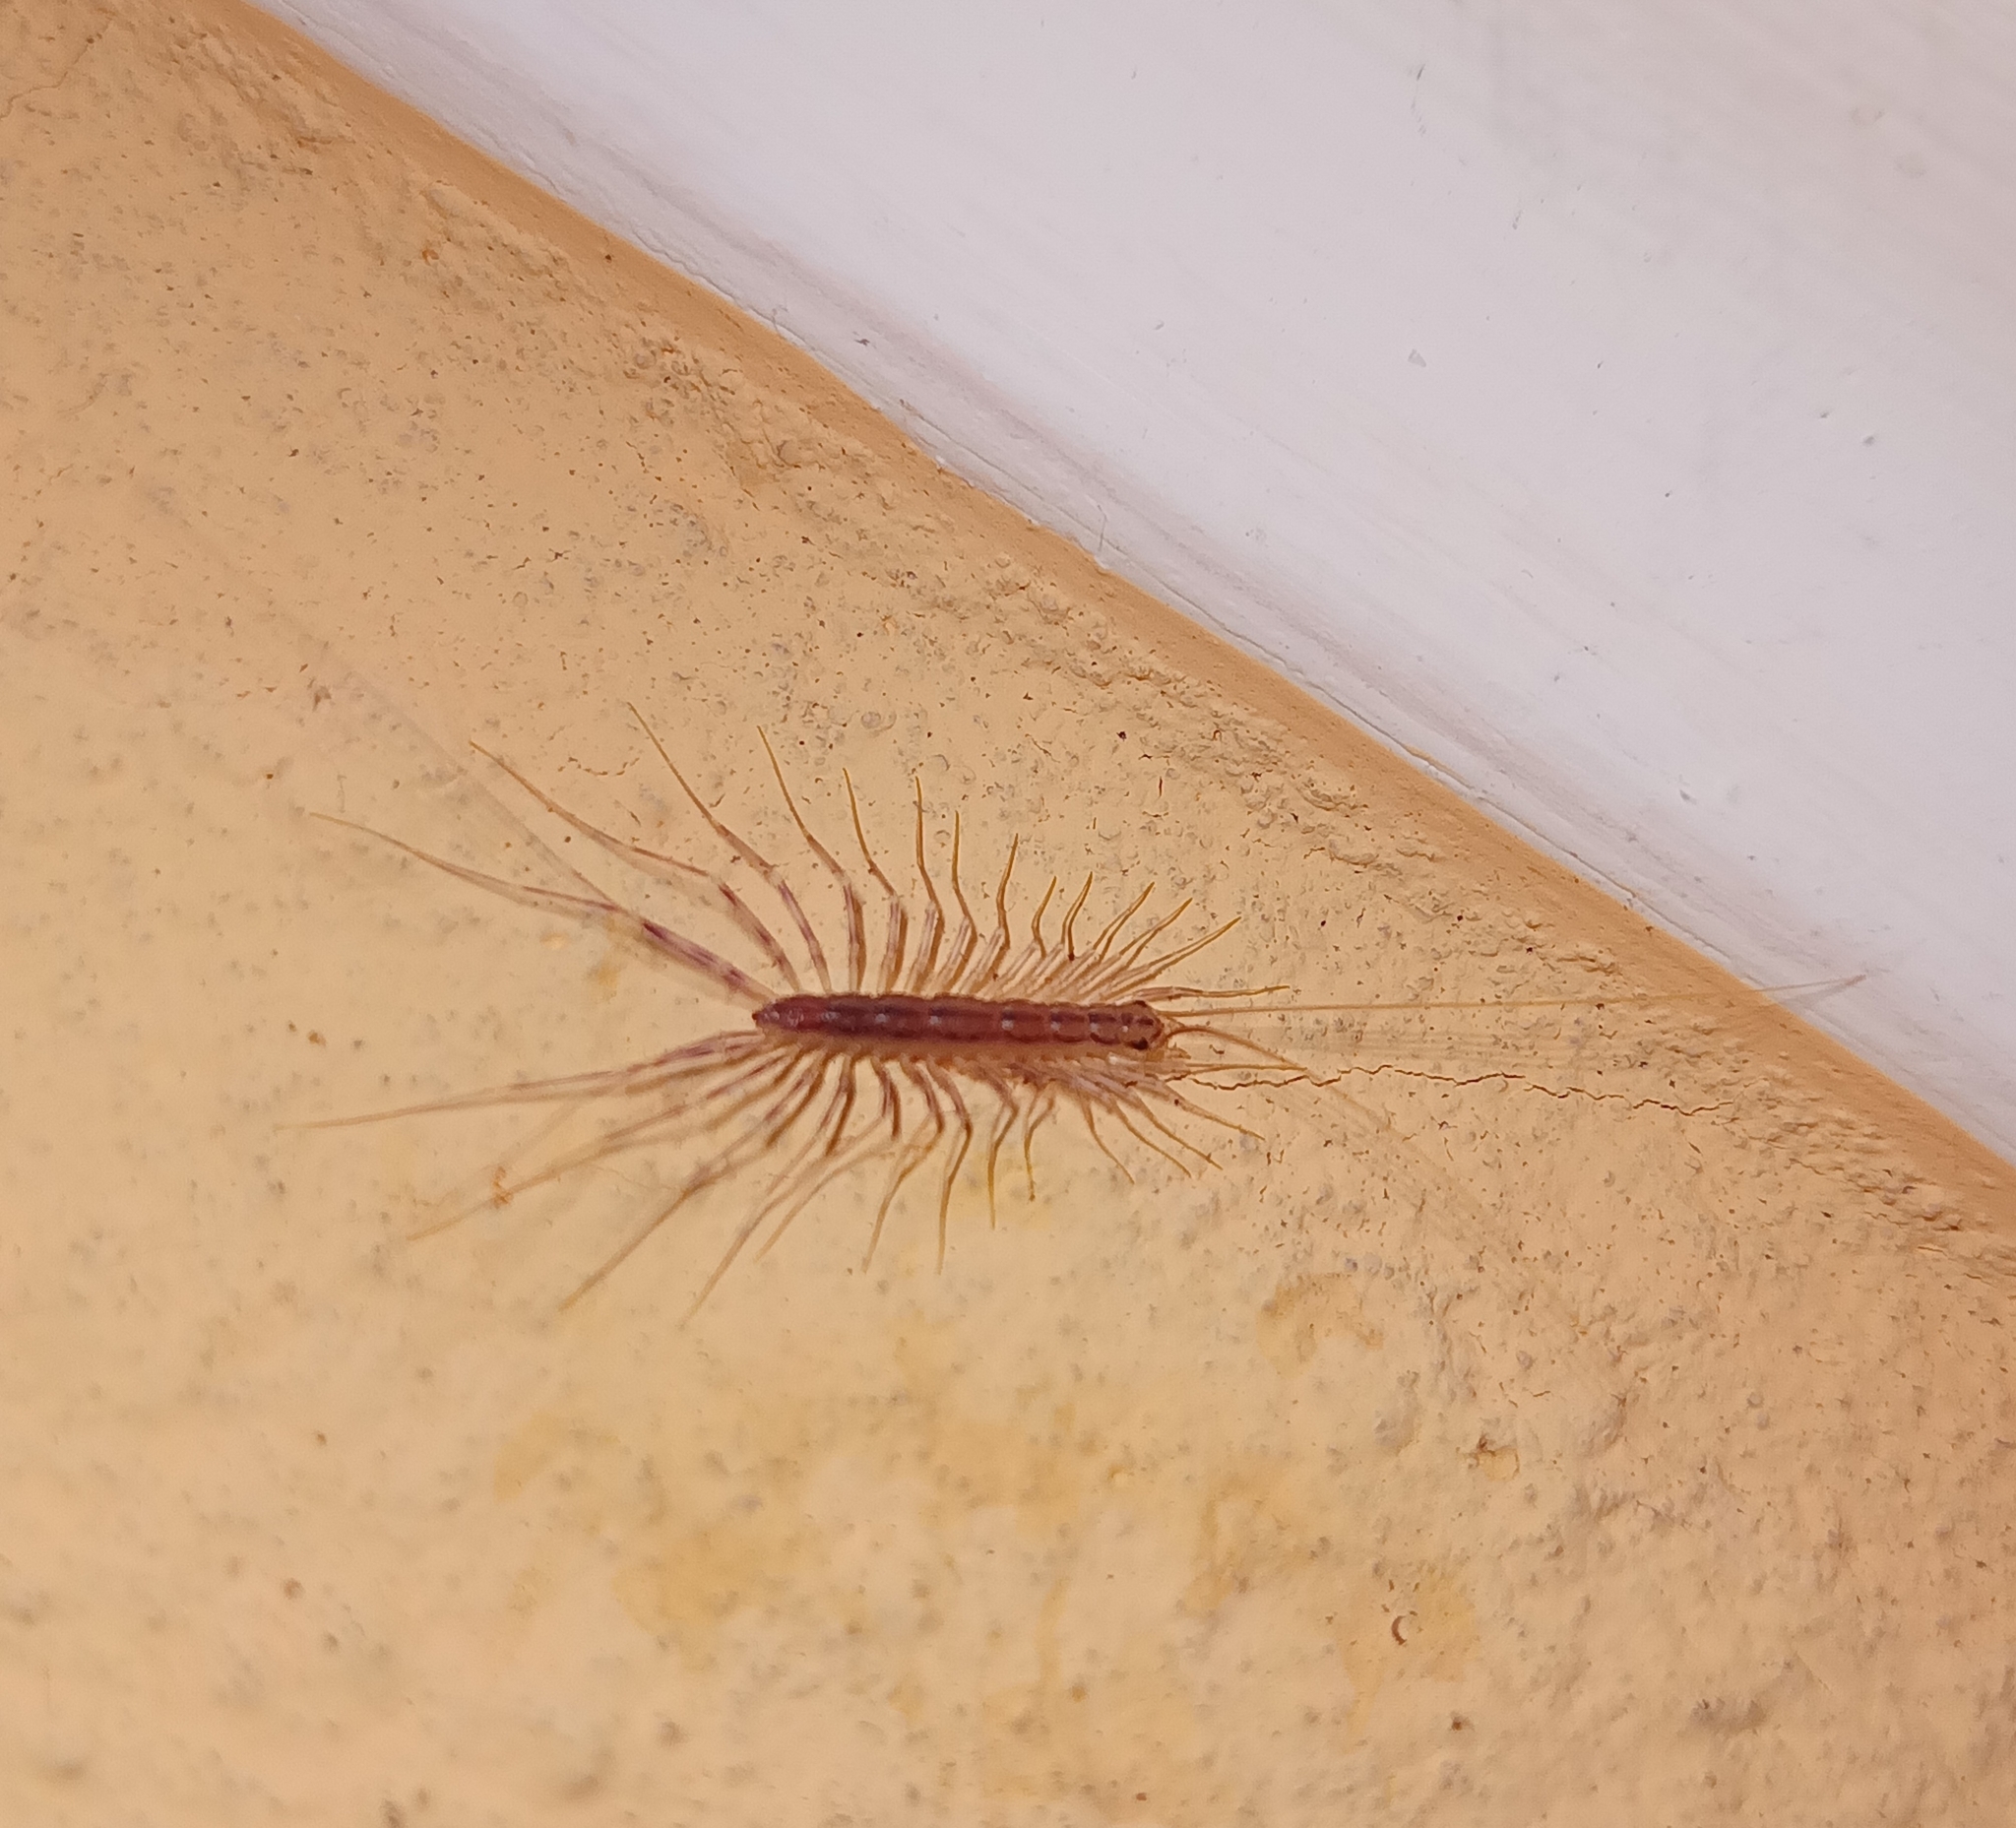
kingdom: Animalia
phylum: Arthropoda
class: Chilopoda
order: Scutigeromorpha
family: Scutigeridae
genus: Scutigera
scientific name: Scutigera coleoptrata
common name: House centipede
